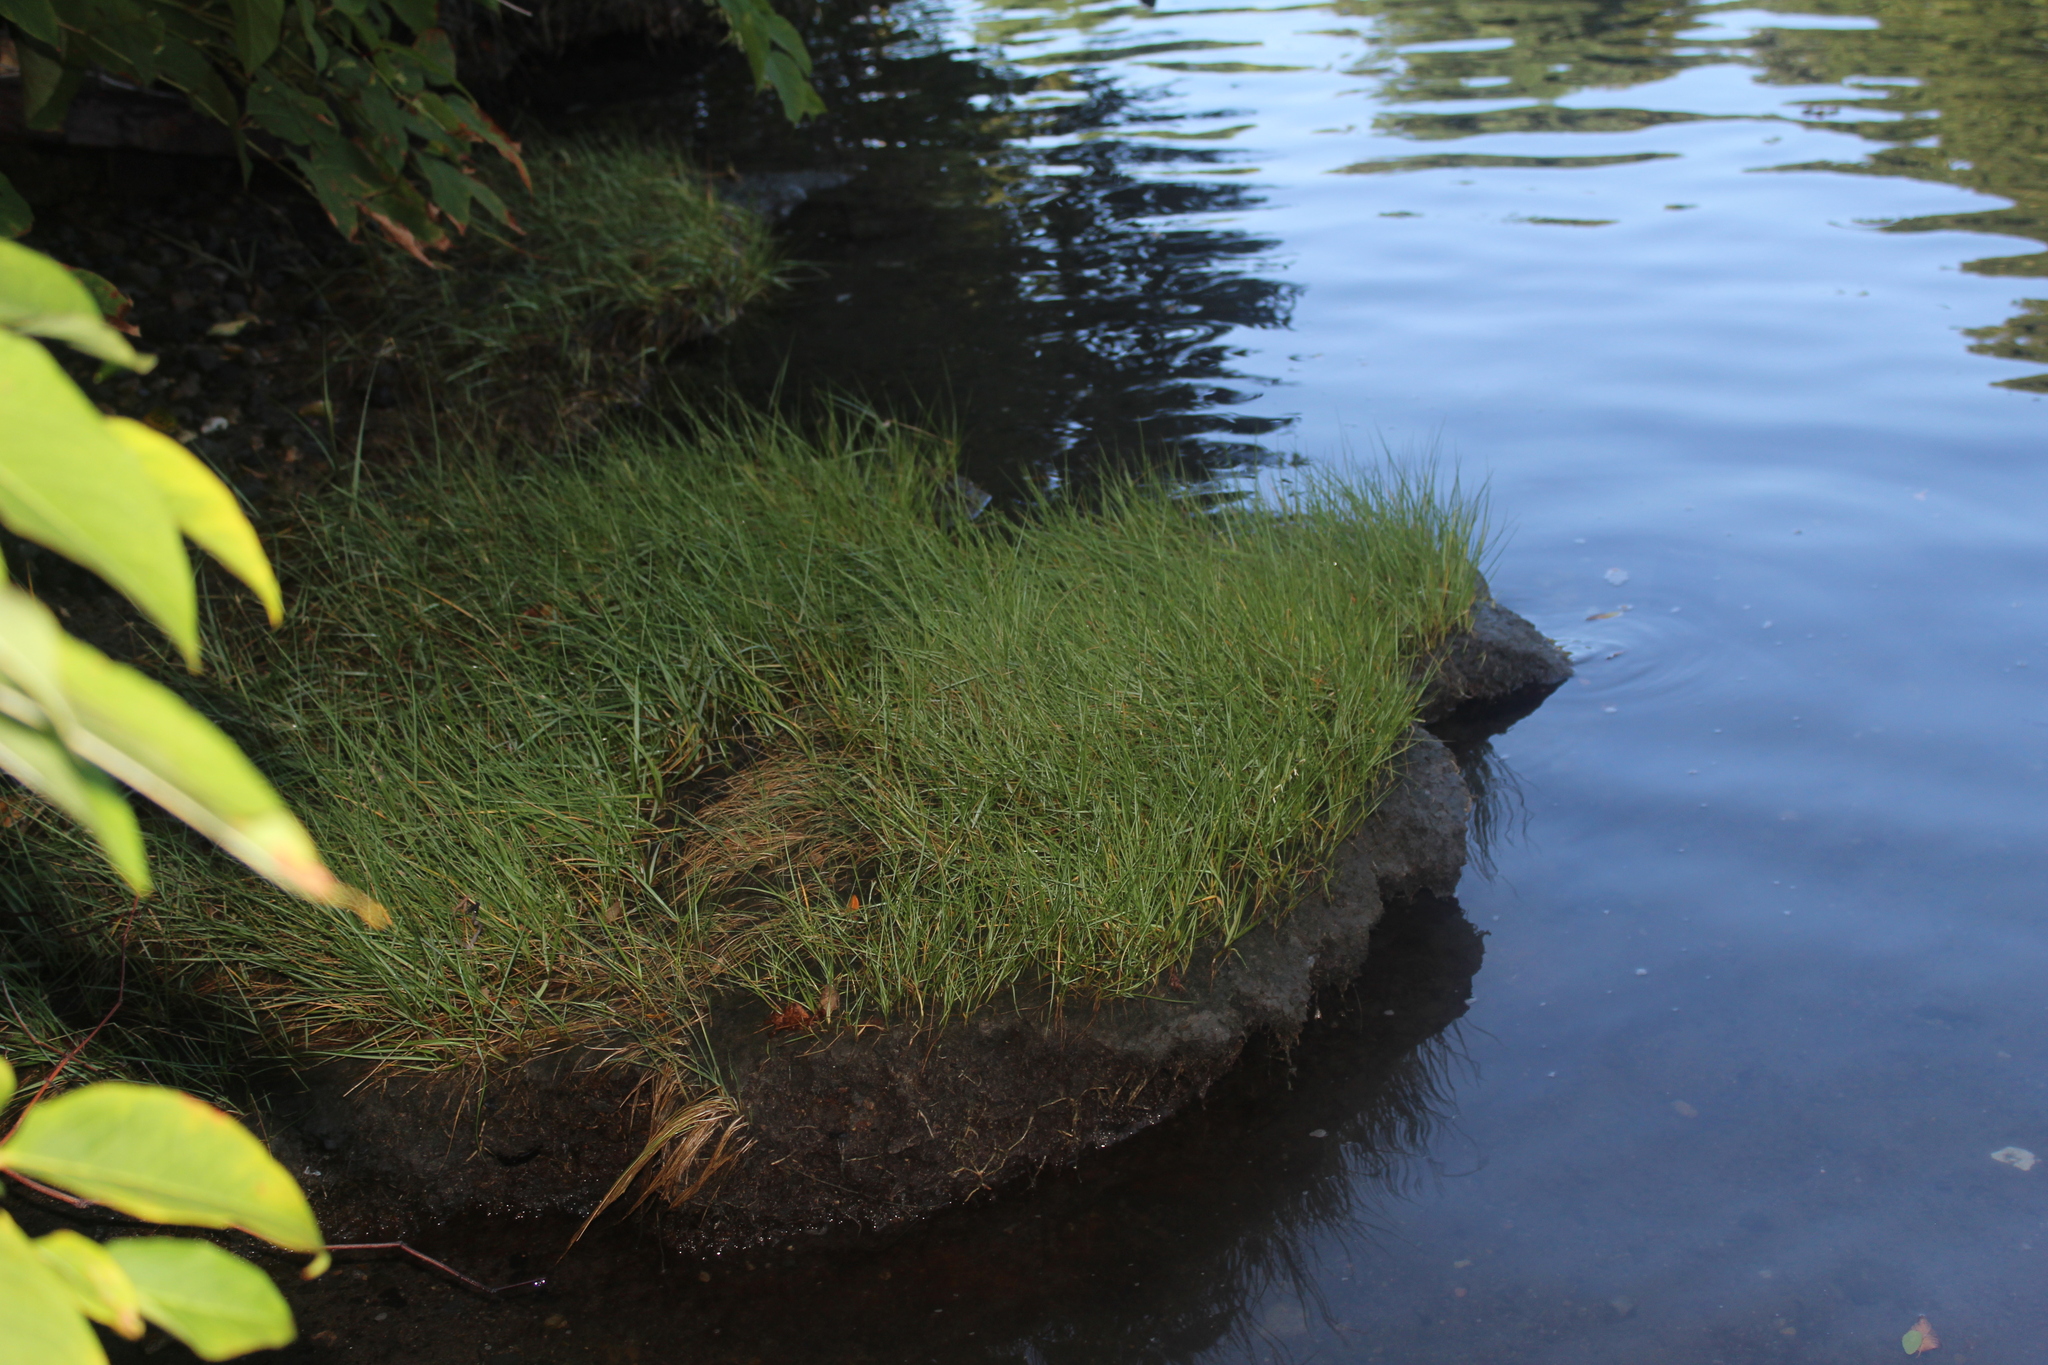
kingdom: Plantae
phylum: Tracheophyta
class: Liliopsida
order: Poales
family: Poaceae
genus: Sporobolus
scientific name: Sporobolus alterniflorus
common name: Atlantic cordgrass
